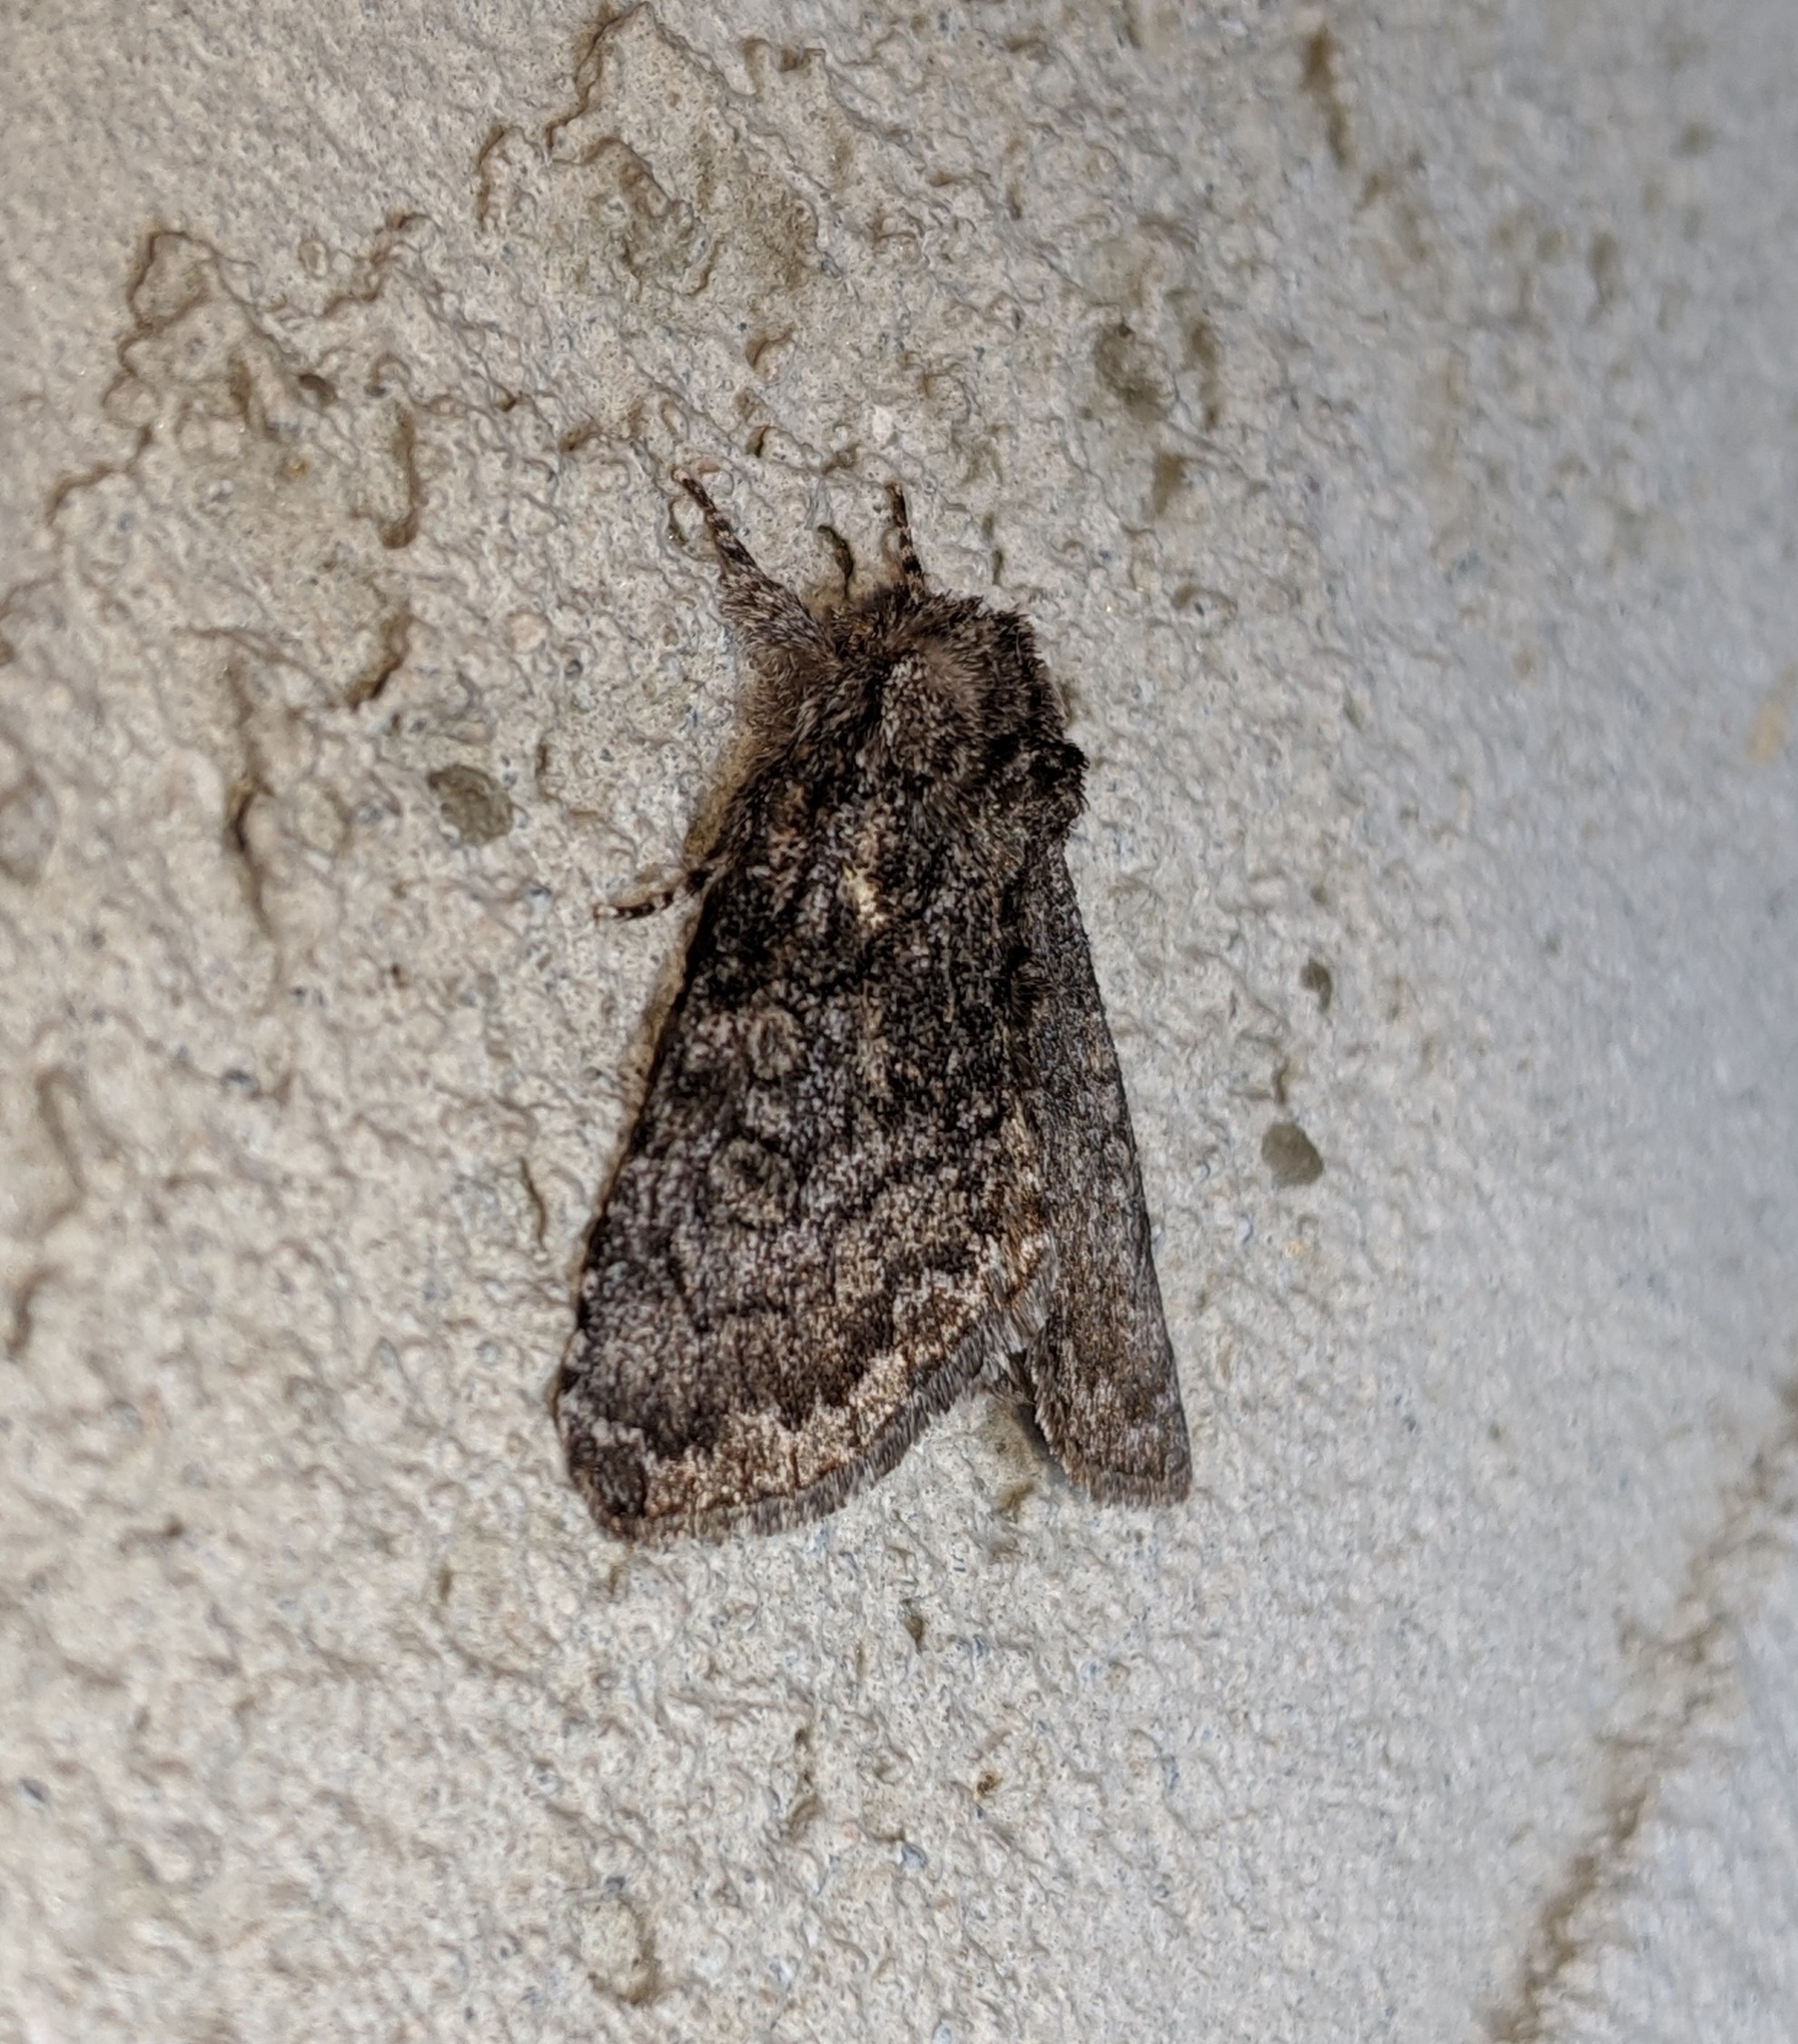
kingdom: Animalia
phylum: Arthropoda
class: Insecta
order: Lepidoptera
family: Noctuidae
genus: Raphia
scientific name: Raphia frater
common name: Brother
